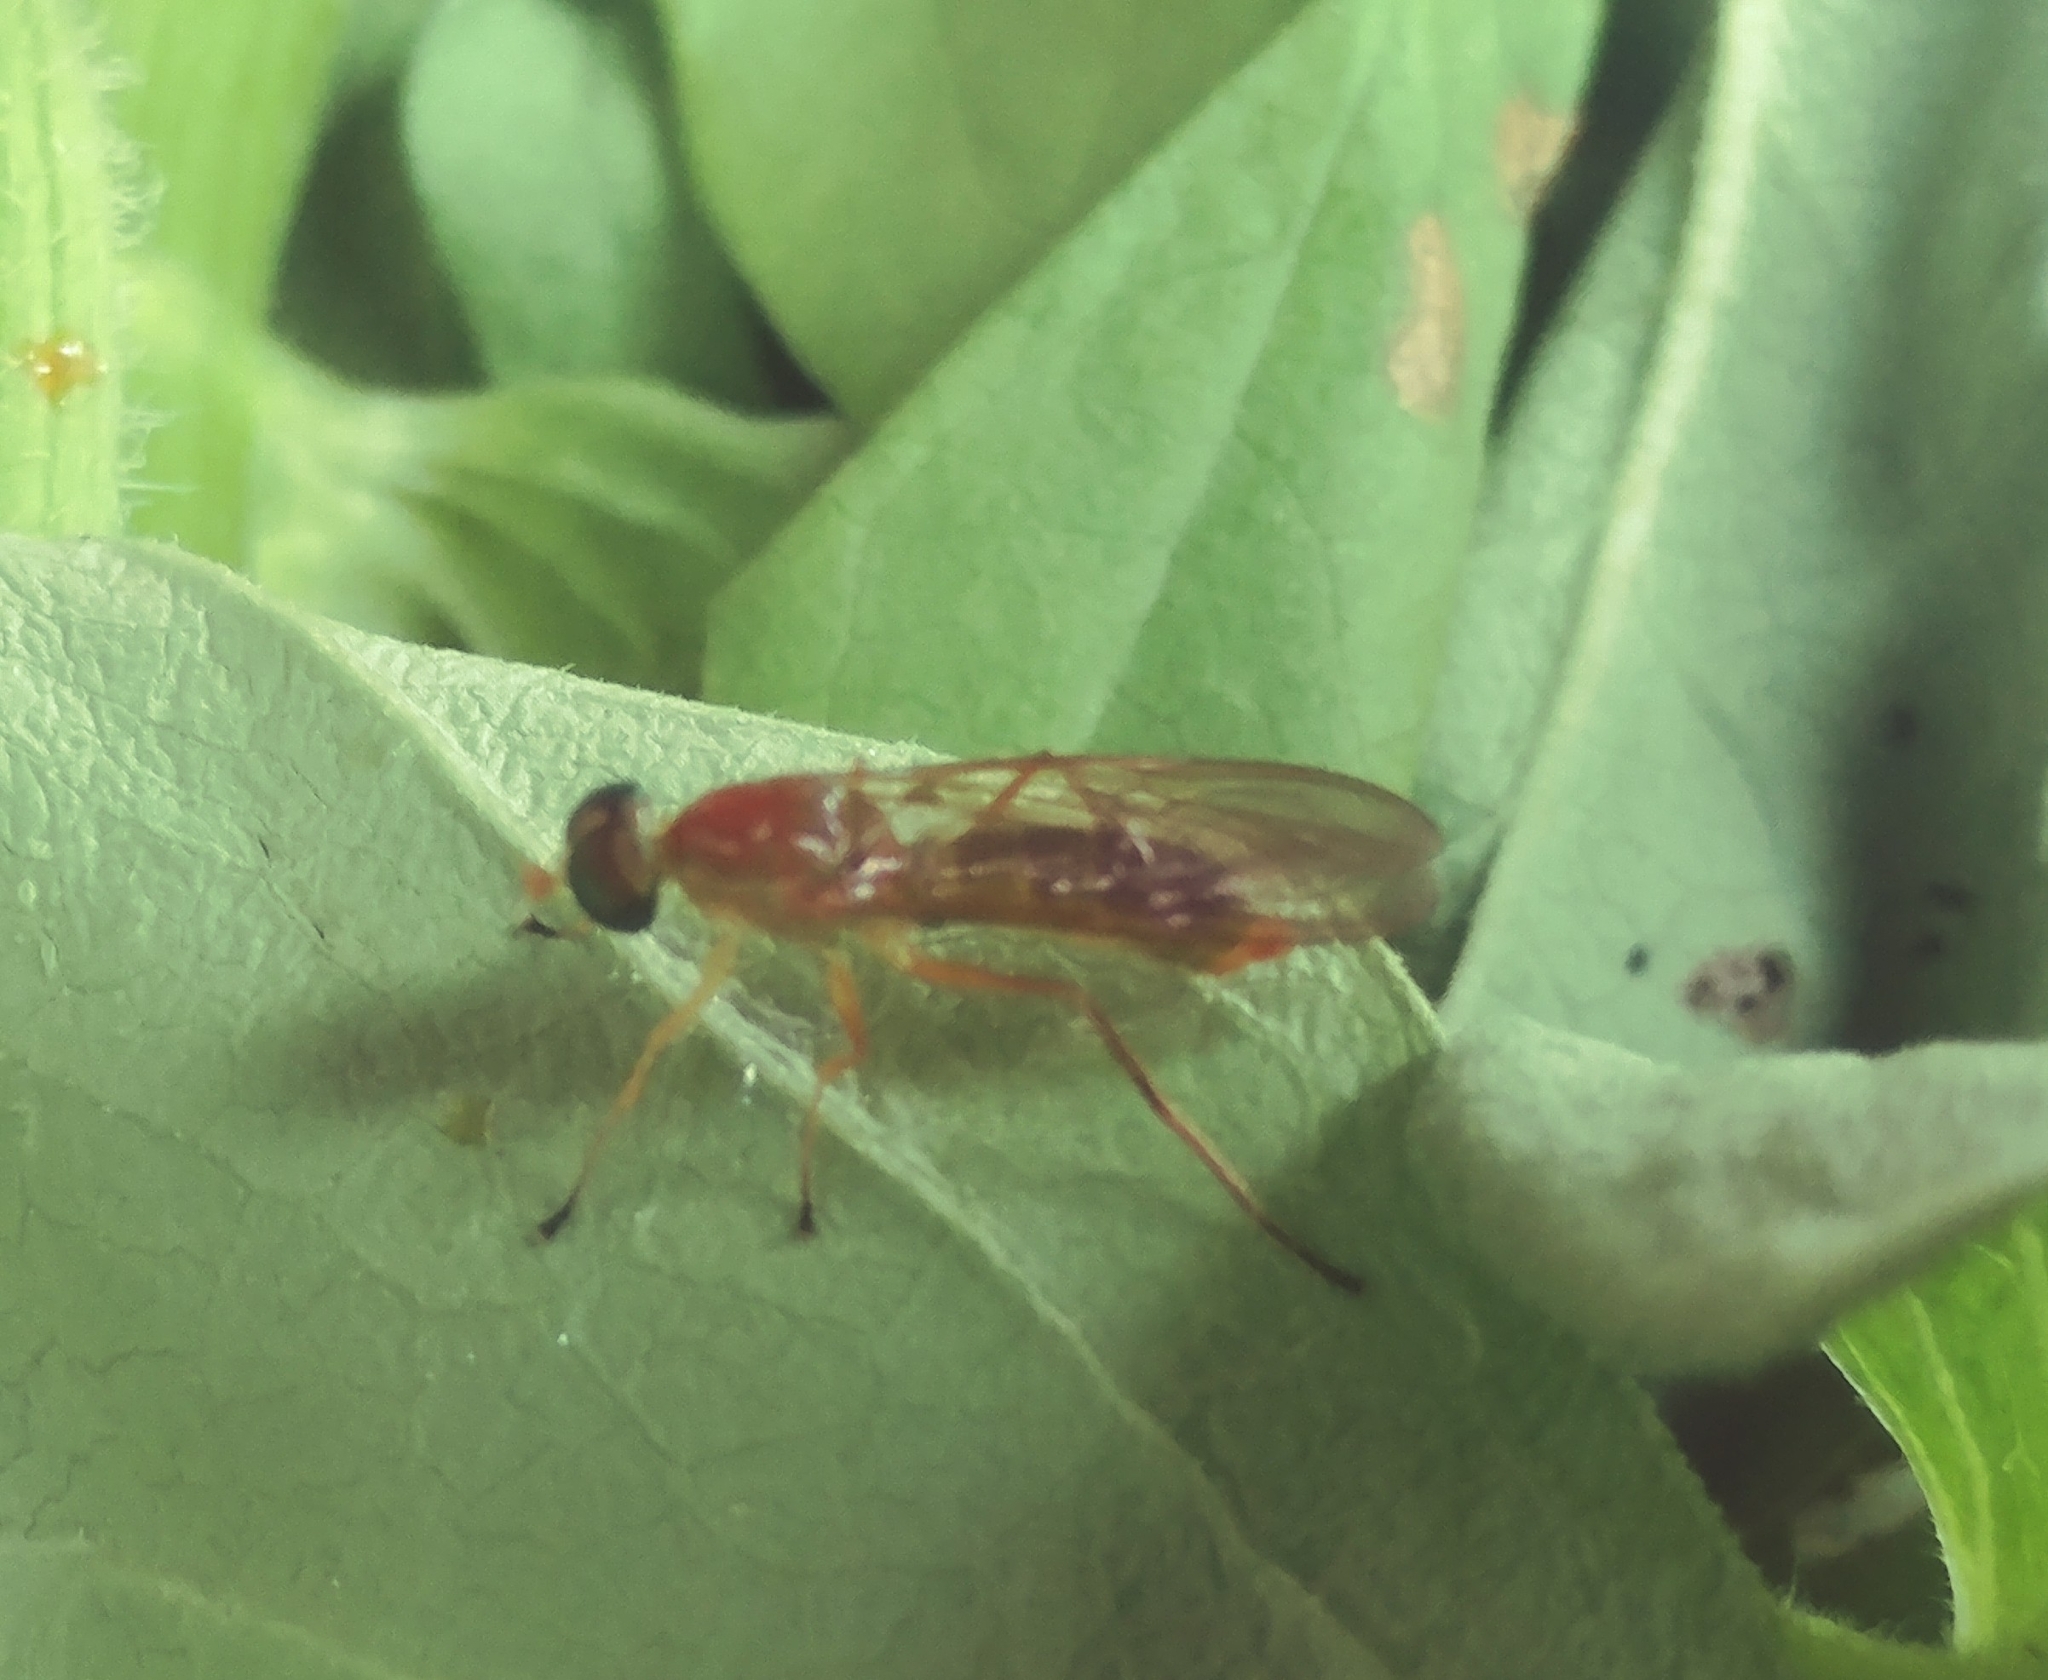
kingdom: Animalia
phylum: Arthropoda
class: Insecta
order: Diptera
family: Stratiomyidae
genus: Ptecticus
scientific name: Ptecticus trivittatus
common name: Compost fly
